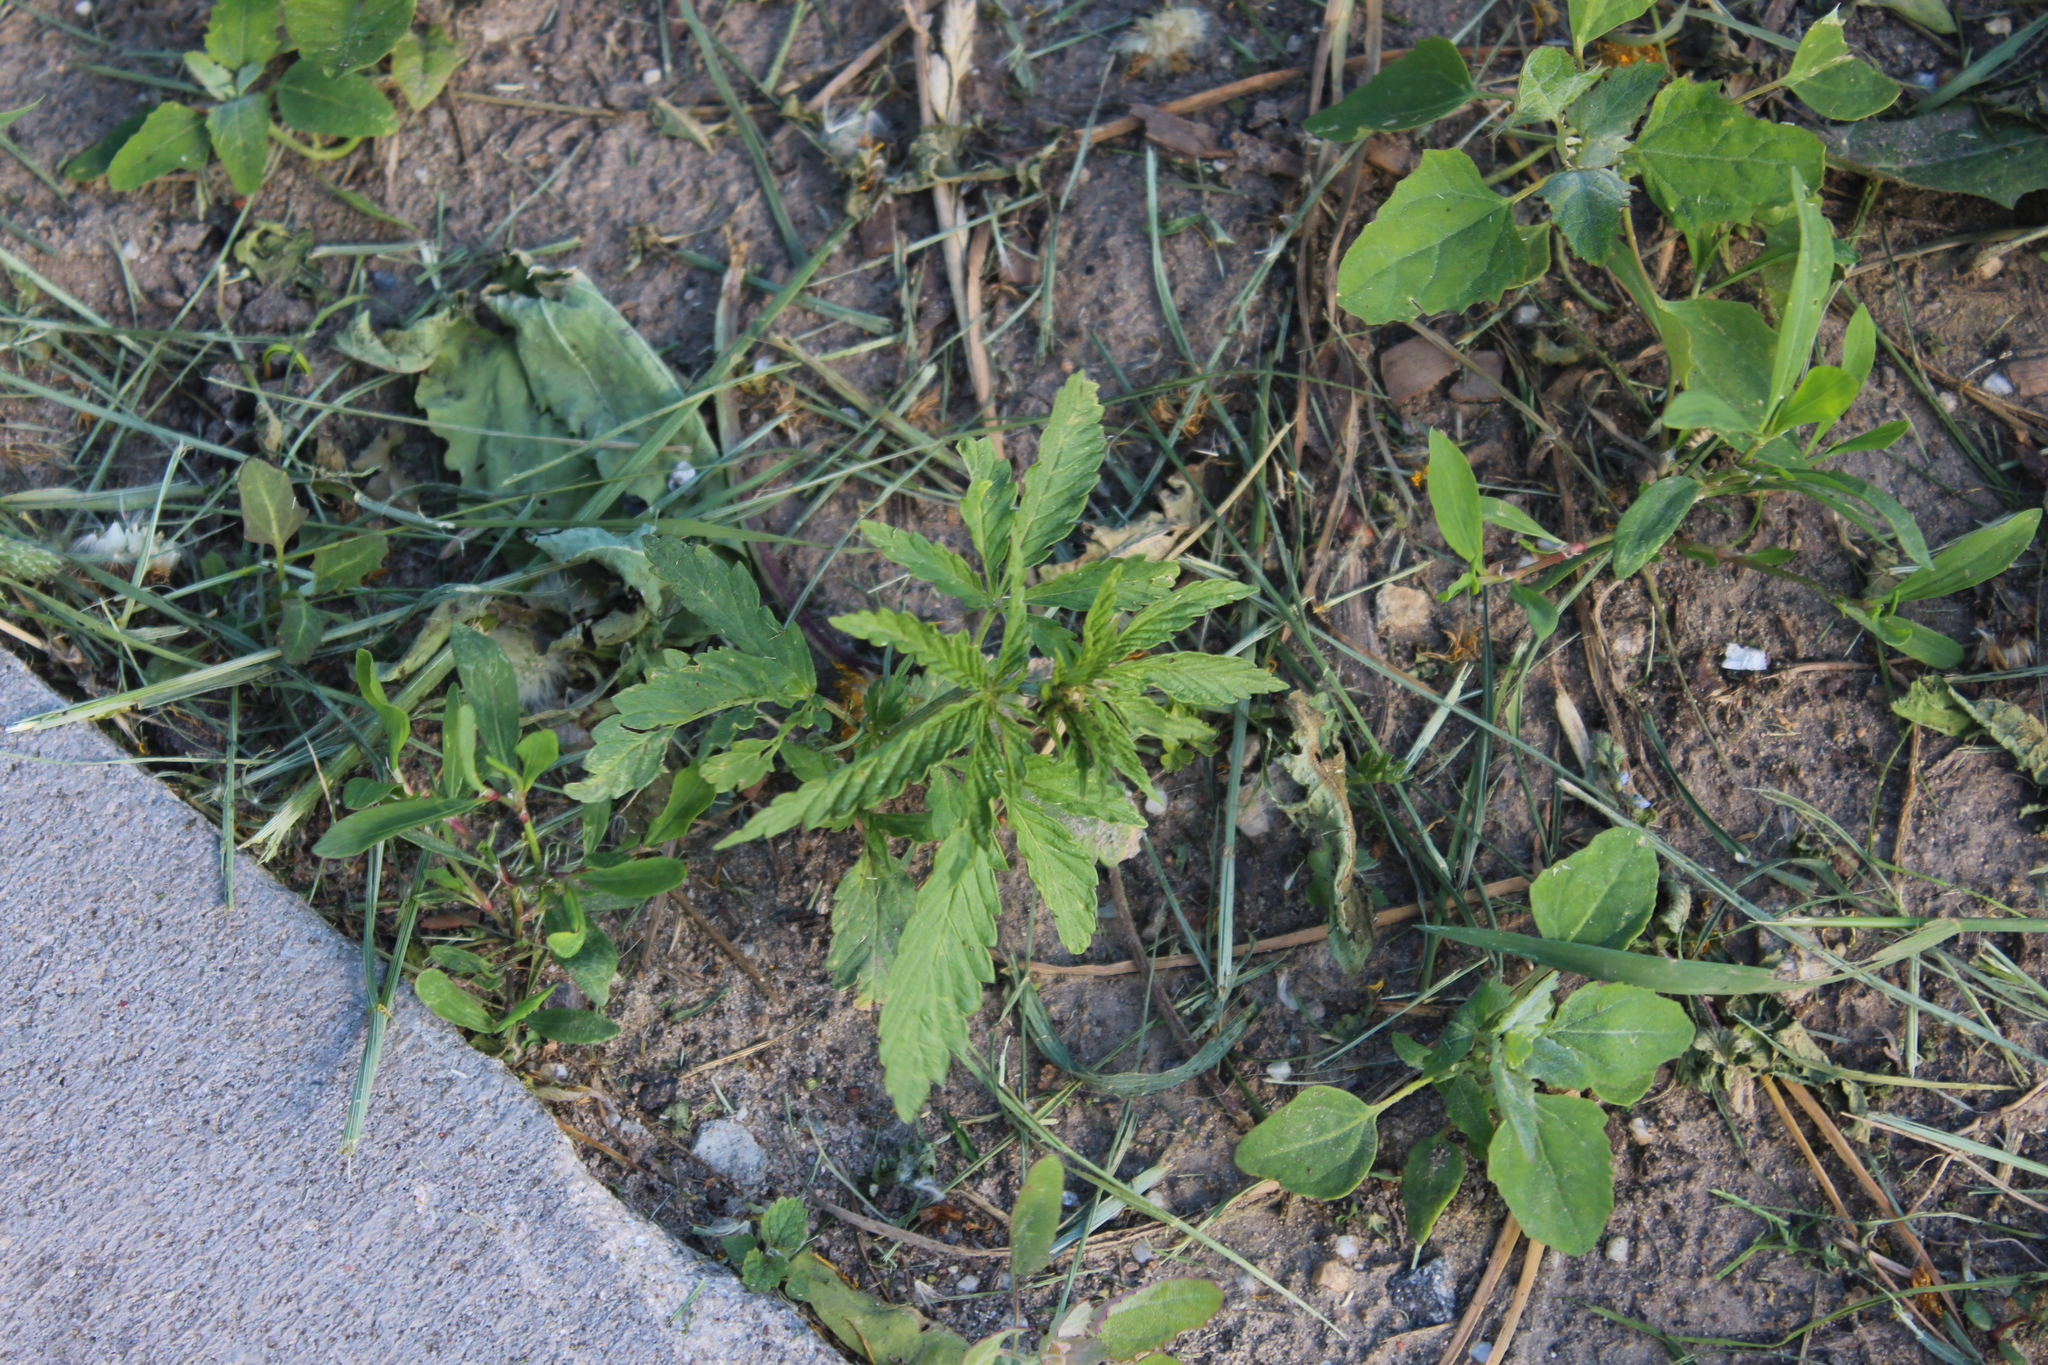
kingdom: Plantae
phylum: Tracheophyta
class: Magnoliopsida
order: Rosales
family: Cannabaceae
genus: Cannabis
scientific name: Cannabis sativa
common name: Hemp
